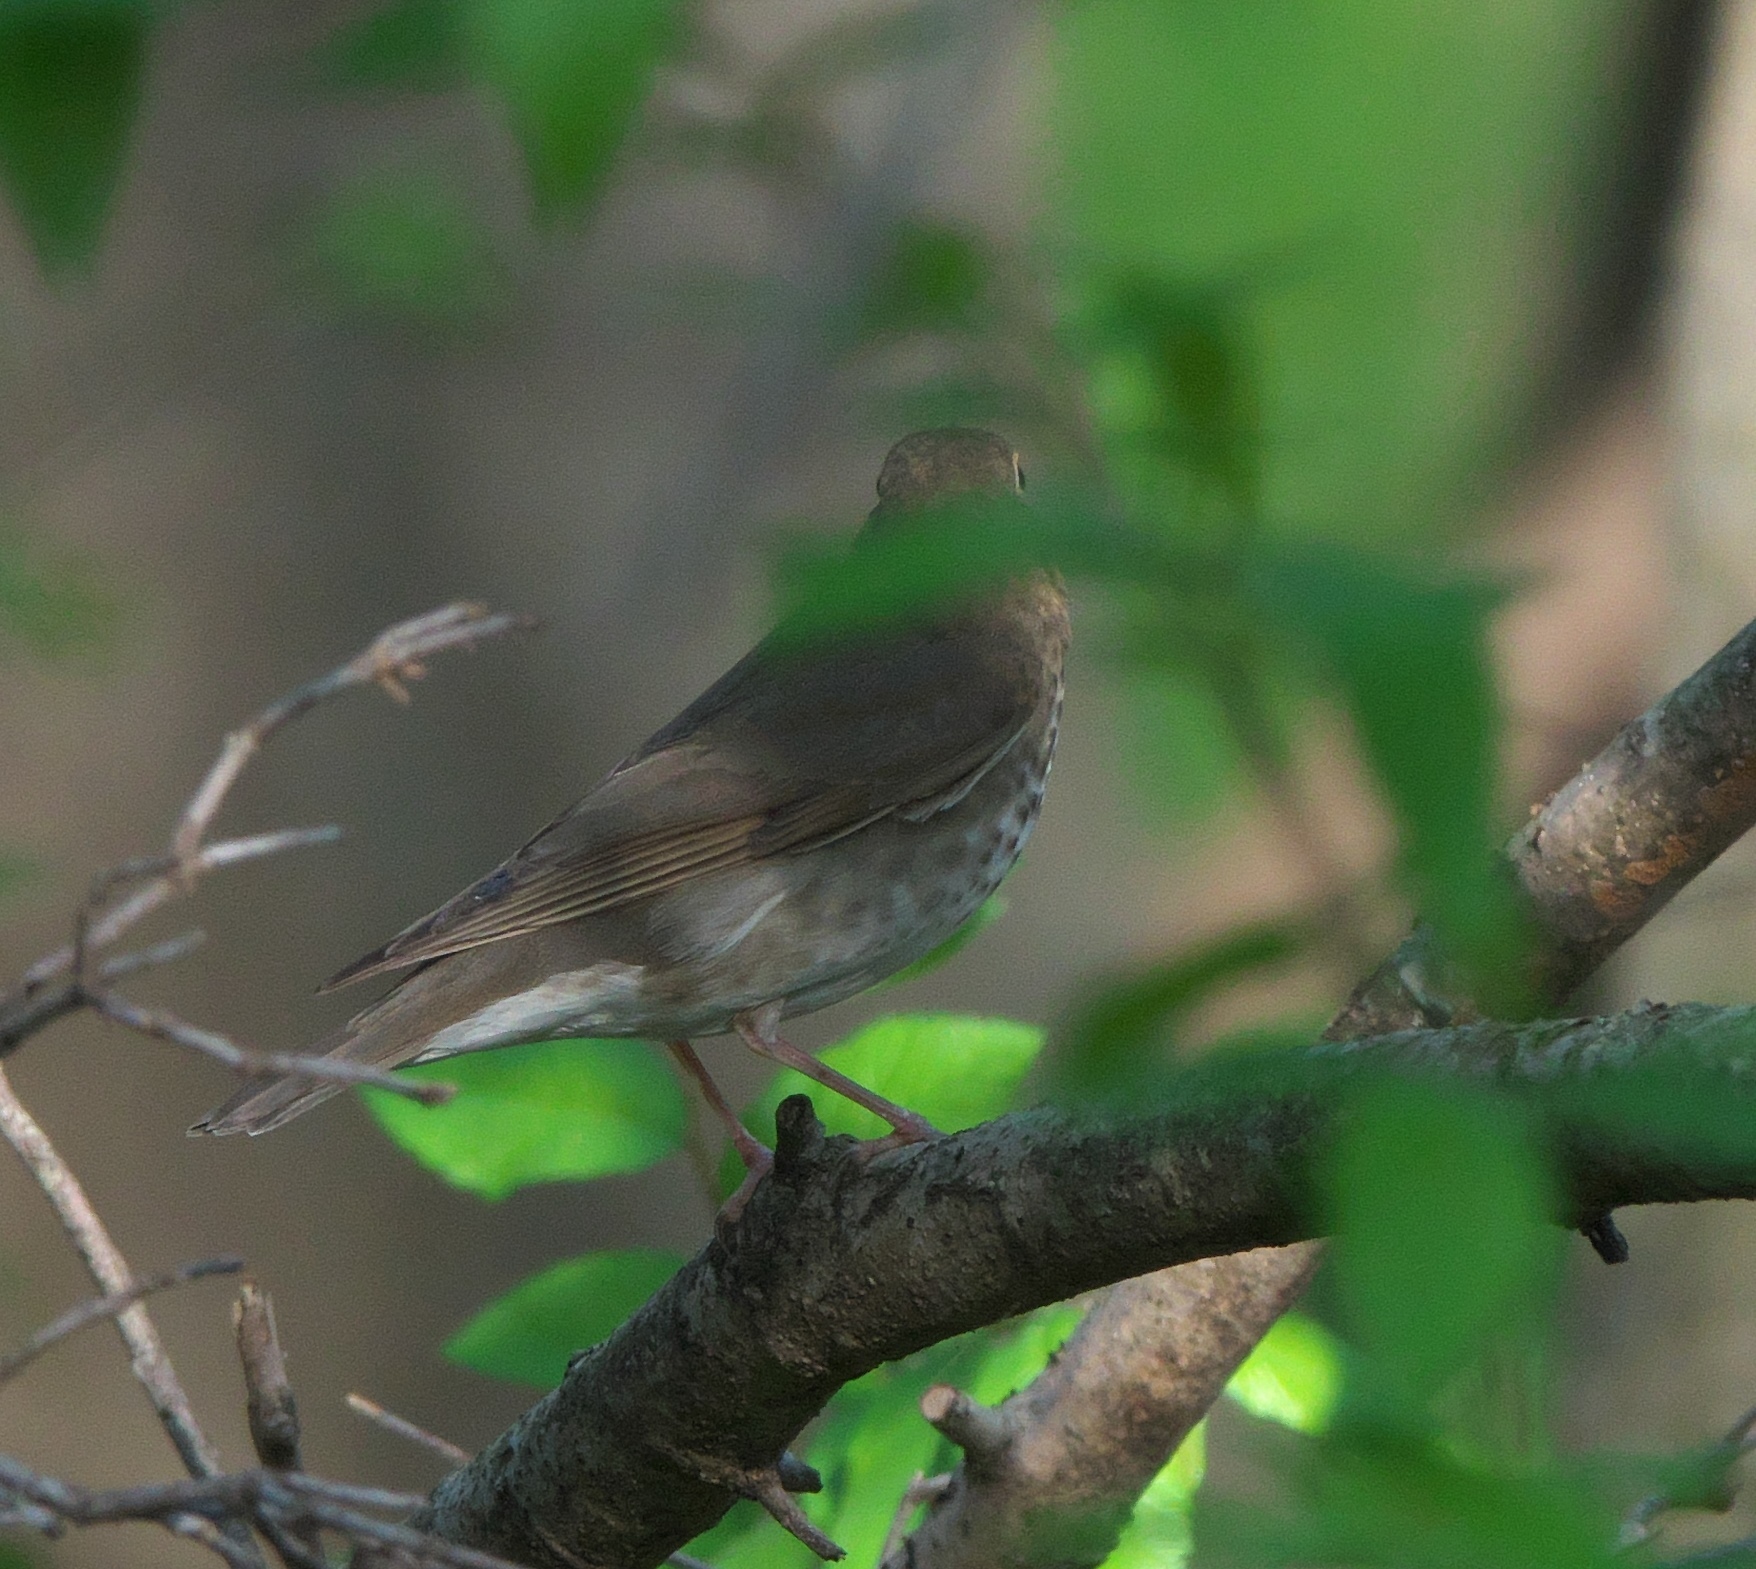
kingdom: Animalia
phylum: Chordata
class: Aves
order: Passeriformes
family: Turdidae
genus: Catharus
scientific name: Catharus ustulatus
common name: Swainson's thrush
